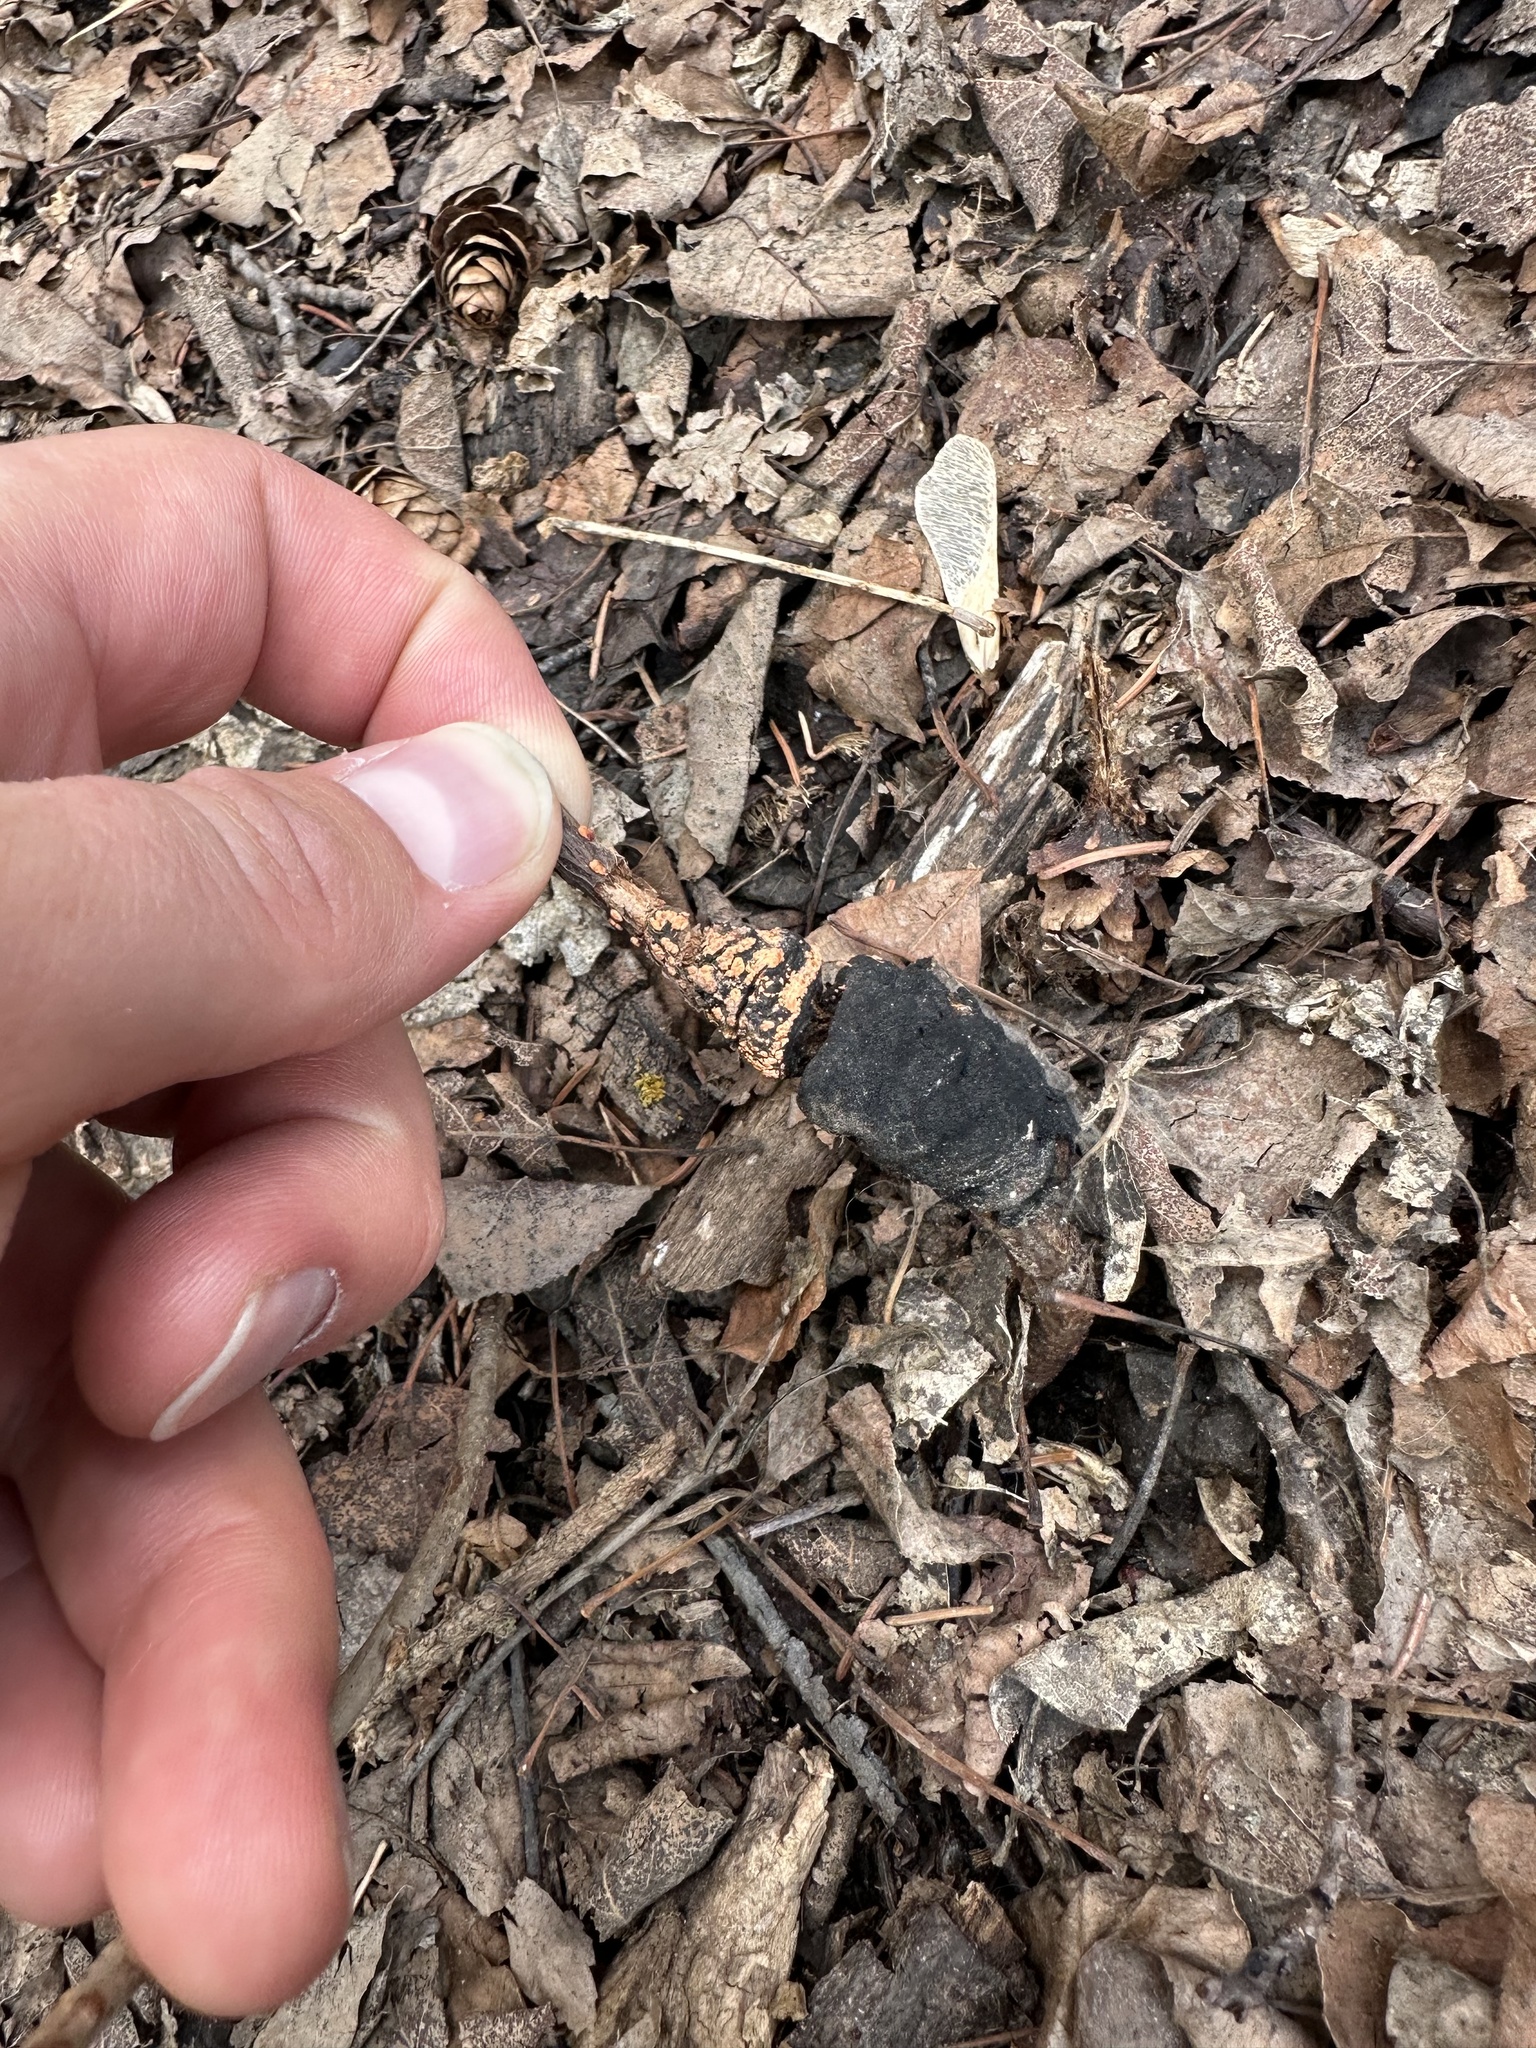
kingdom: Fungi
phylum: Ascomycota
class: Dothideomycetes
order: Venturiales
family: Venturiaceae
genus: Apiosporina
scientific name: Apiosporina morbosa
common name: Black knot
